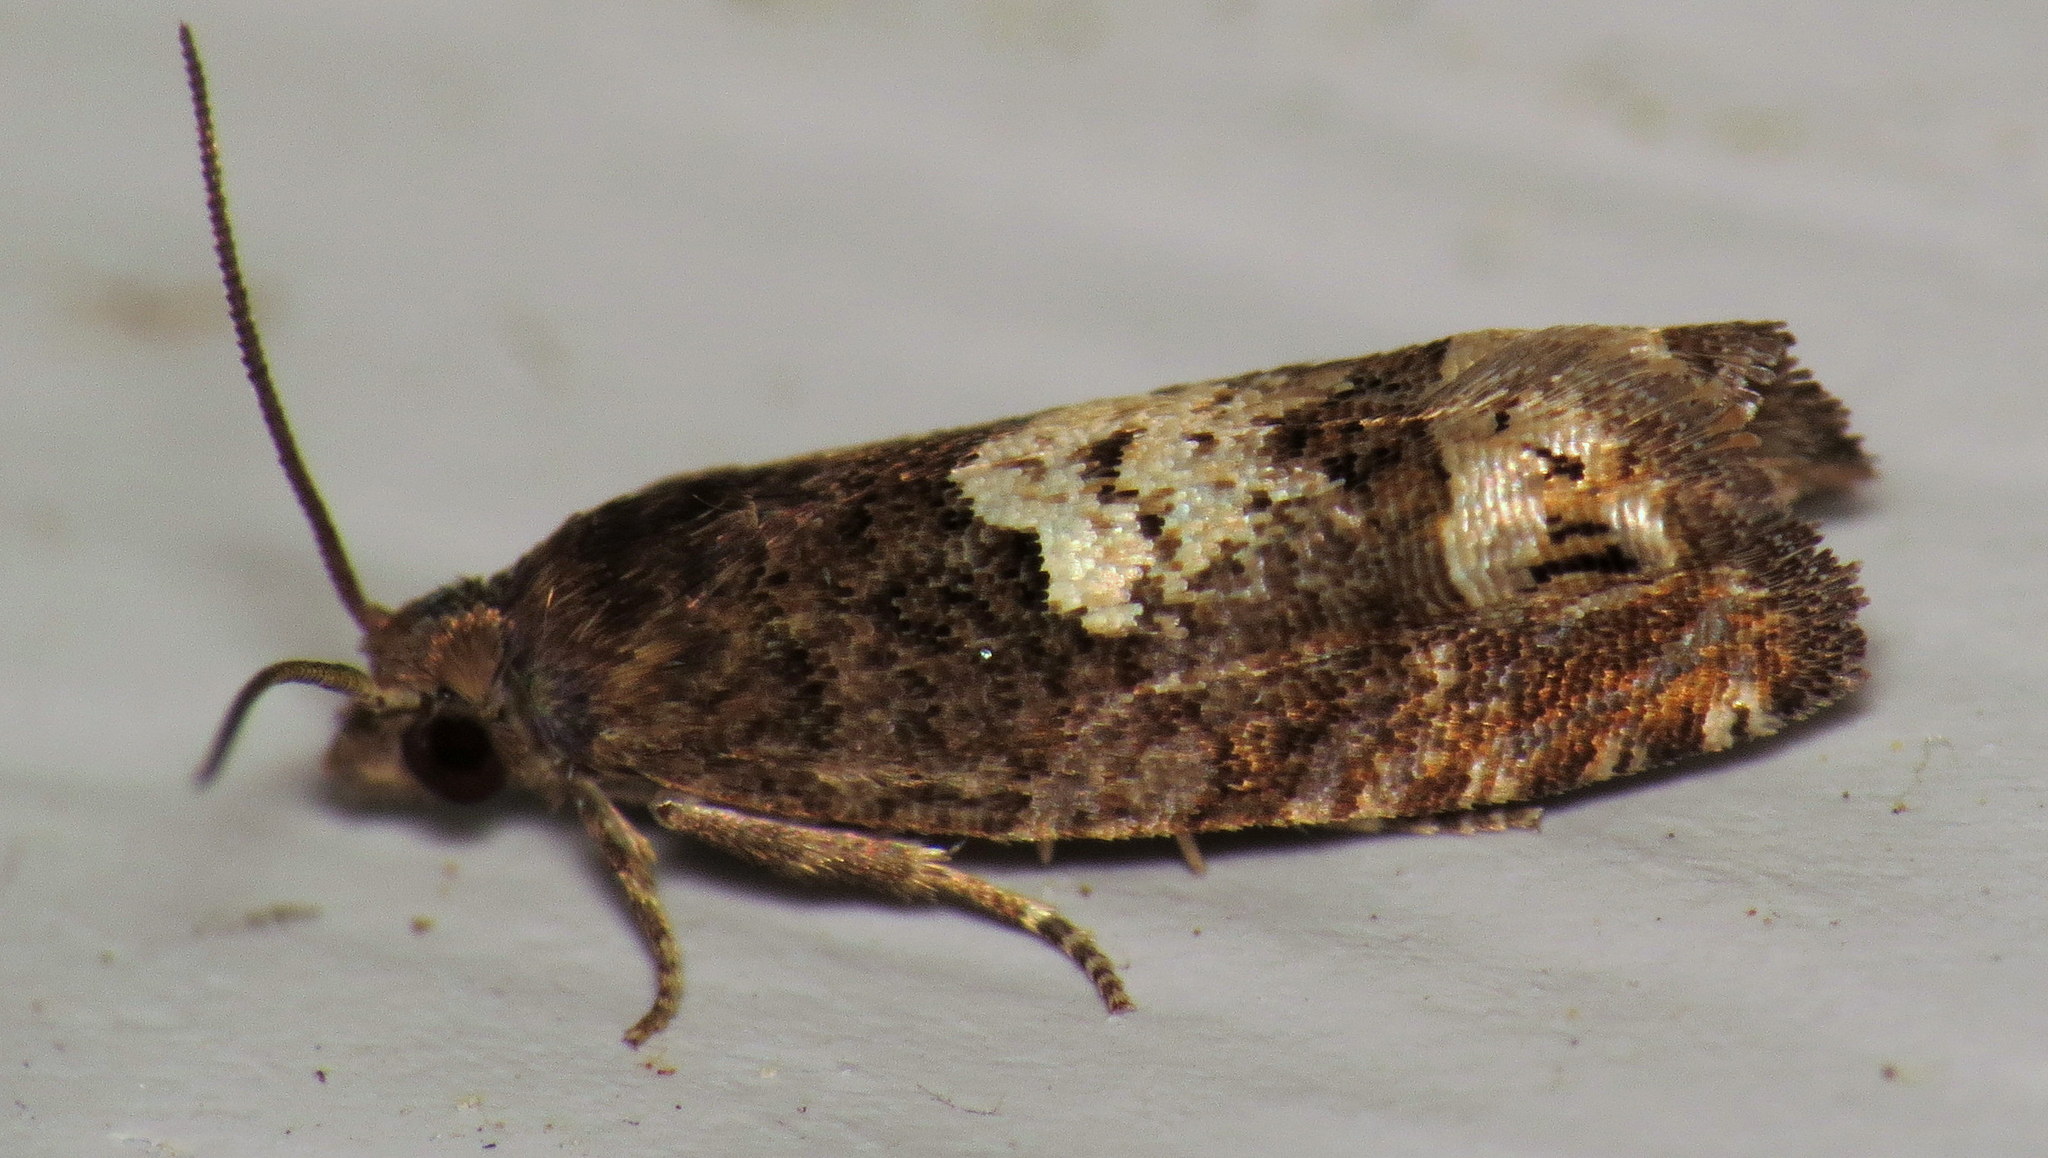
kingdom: Animalia
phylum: Arthropoda
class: Insecta
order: Lepidoptera
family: Tortricidae
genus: Eucosma
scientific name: Eucosma parmatana
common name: Aster eucosma moth
